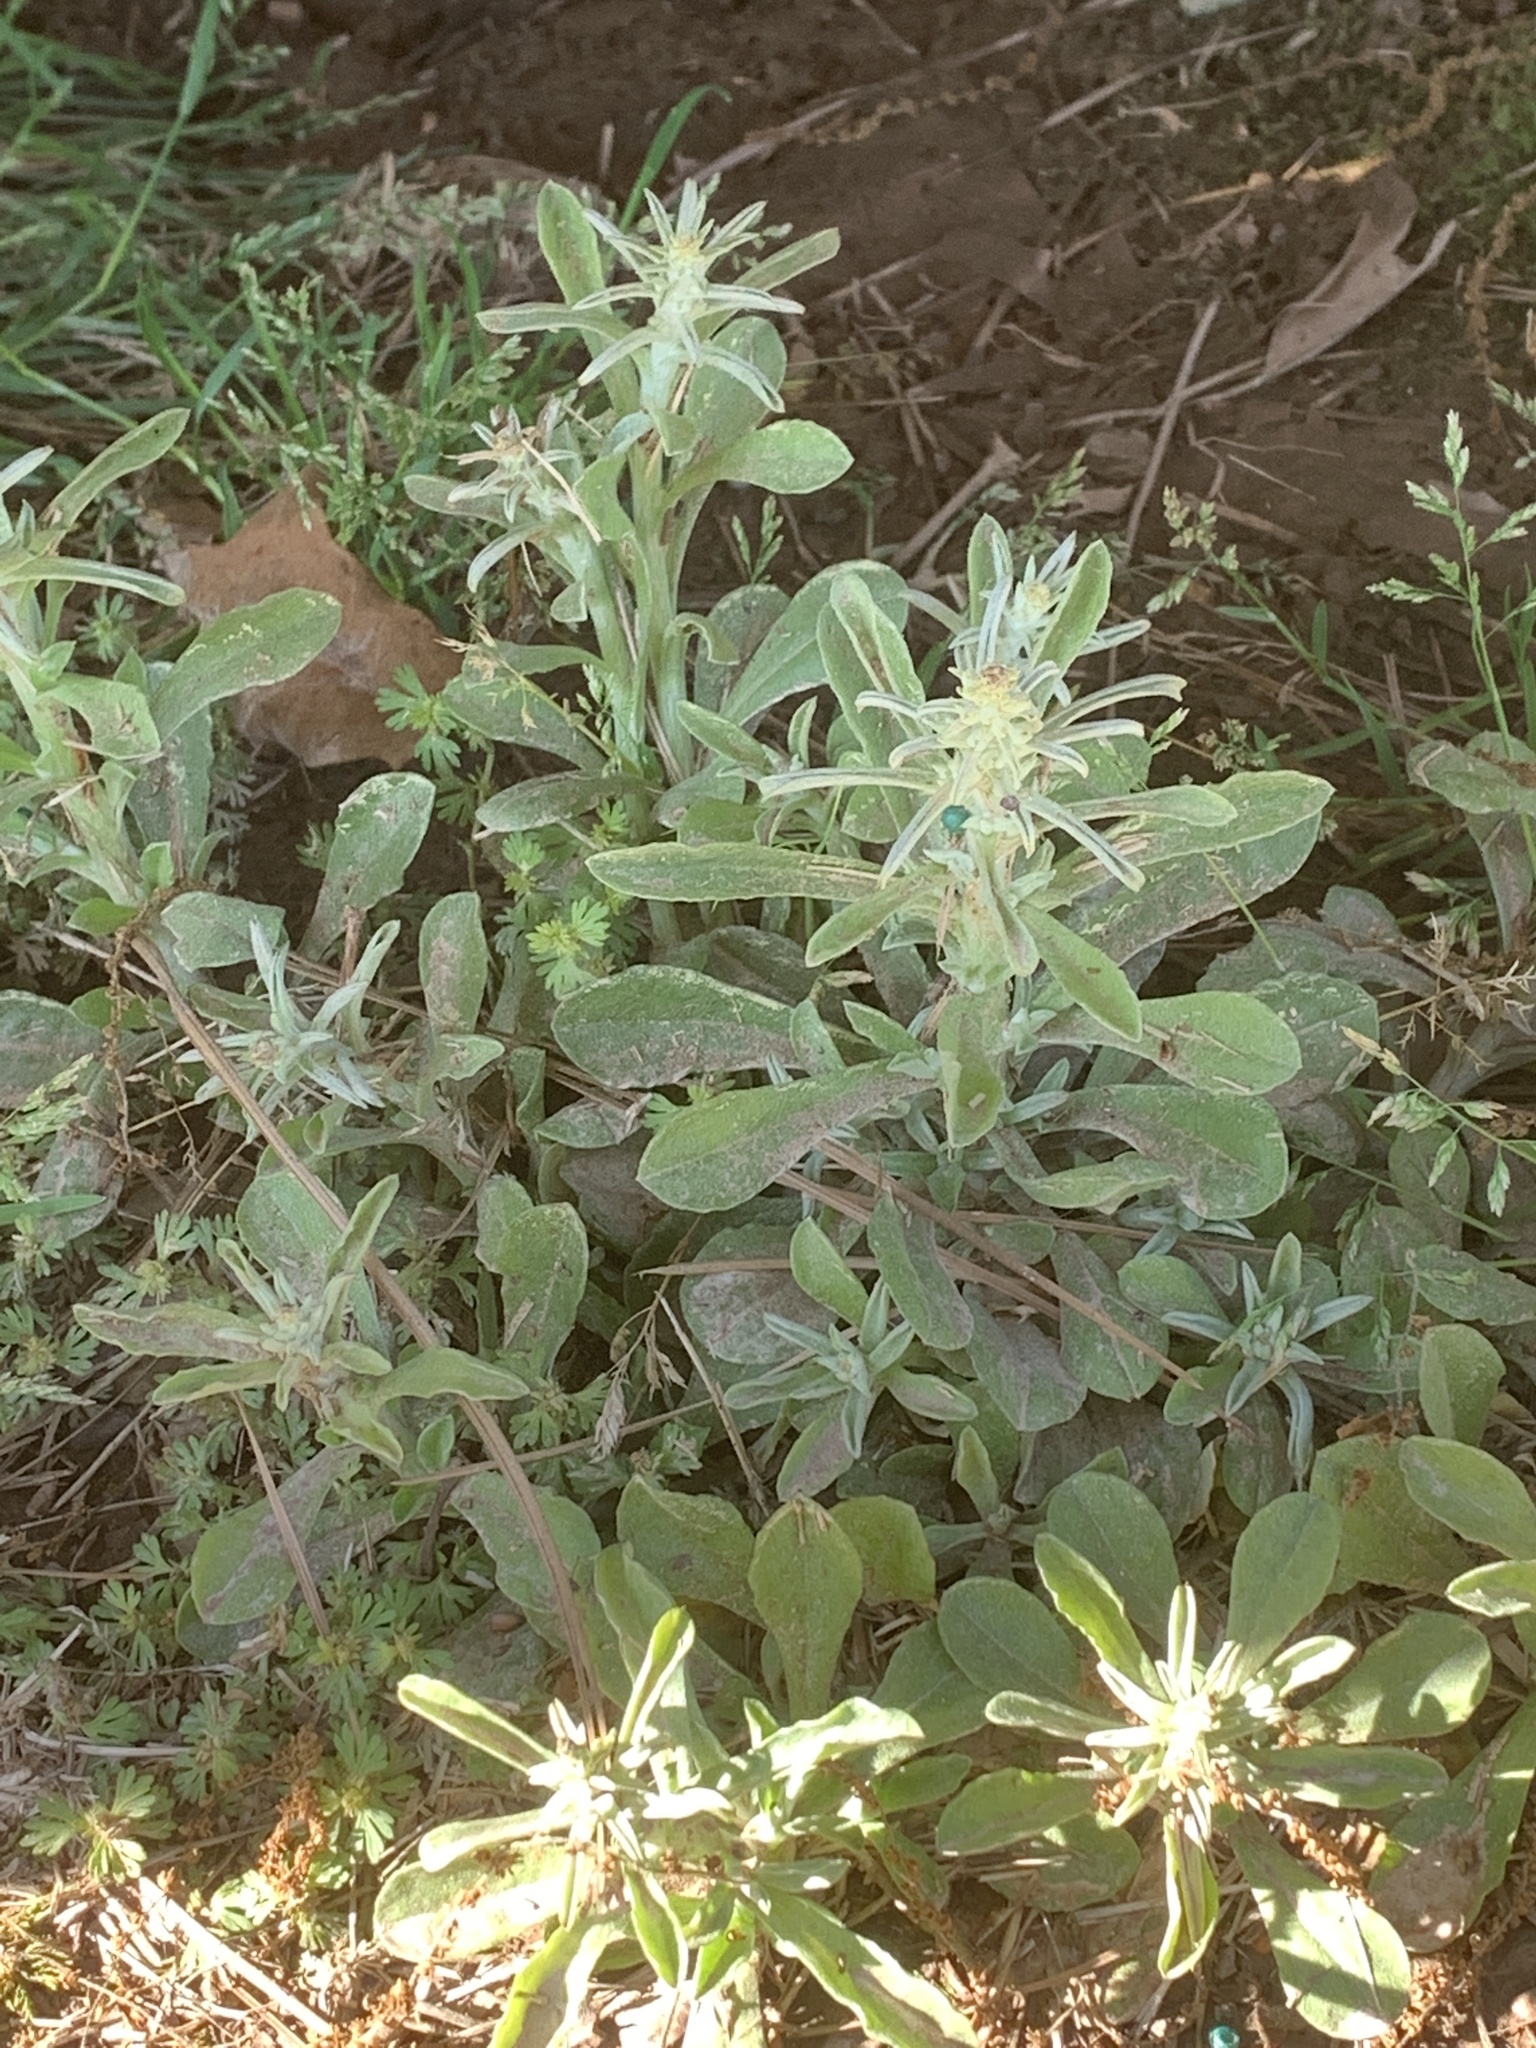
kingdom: Plantae
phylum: Tracheophyta
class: Magnoliopsida
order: Asterales
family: Asteraceae
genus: Gamochaeta
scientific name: Gamochaeta pensylvanica
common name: Pennsylvania everlasting
